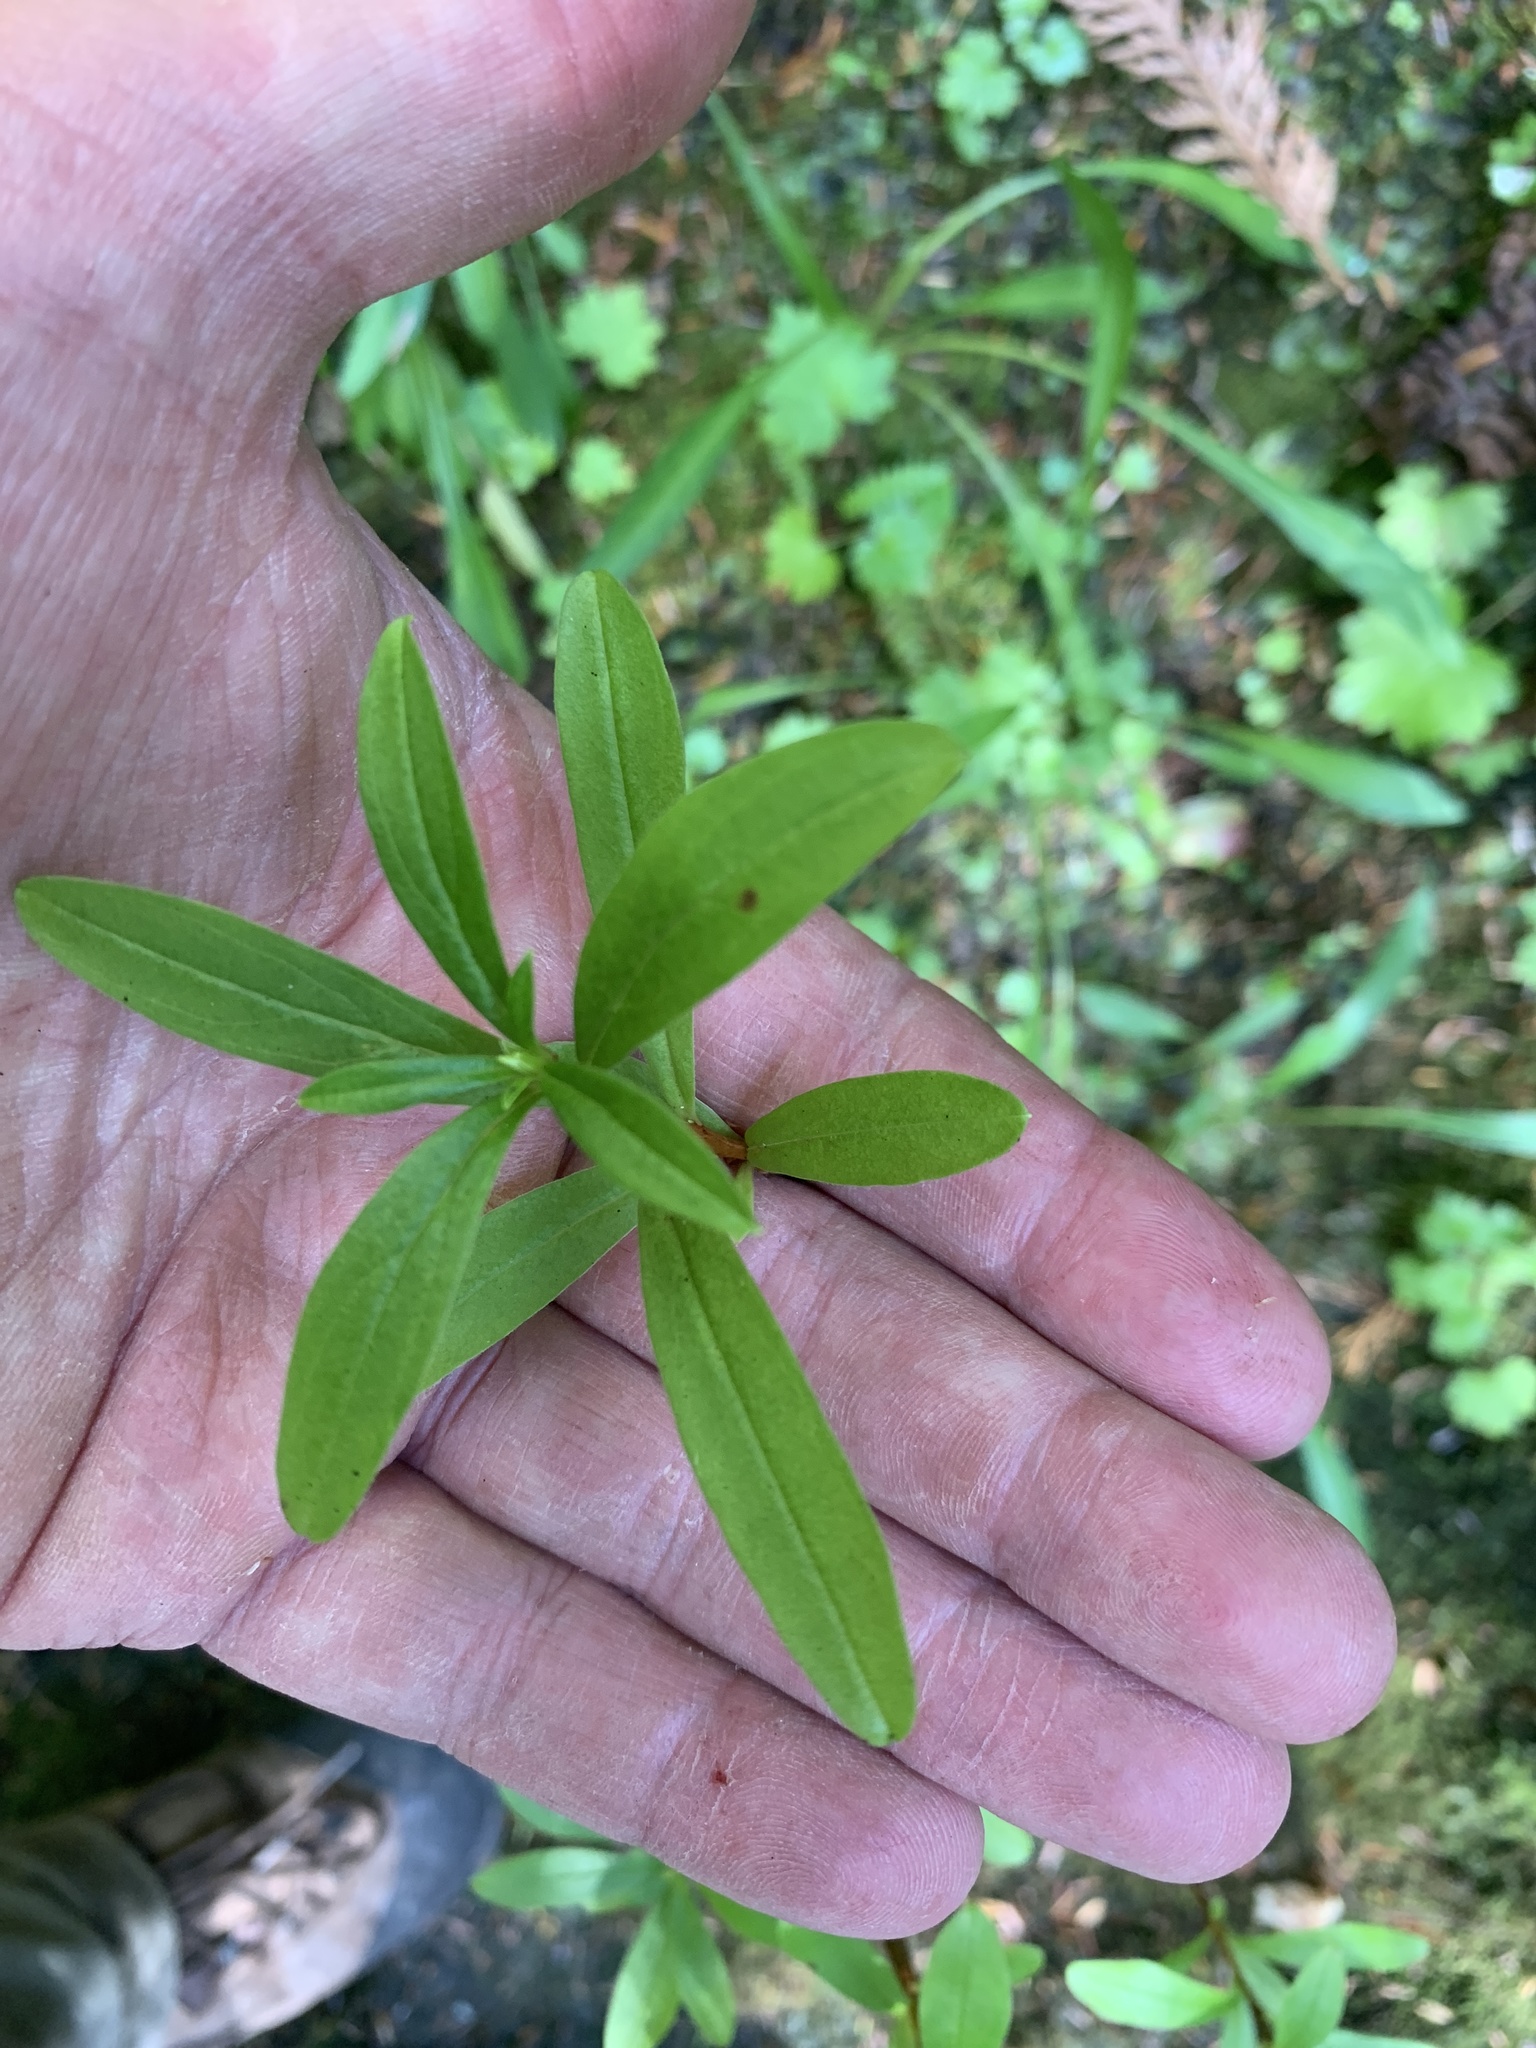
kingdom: Plantae
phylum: Tracheophyta
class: Magnoliopsida
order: Ericales
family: Ericaceae
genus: Elliottia
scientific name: Elliottia pyroliflora
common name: Copperbush
